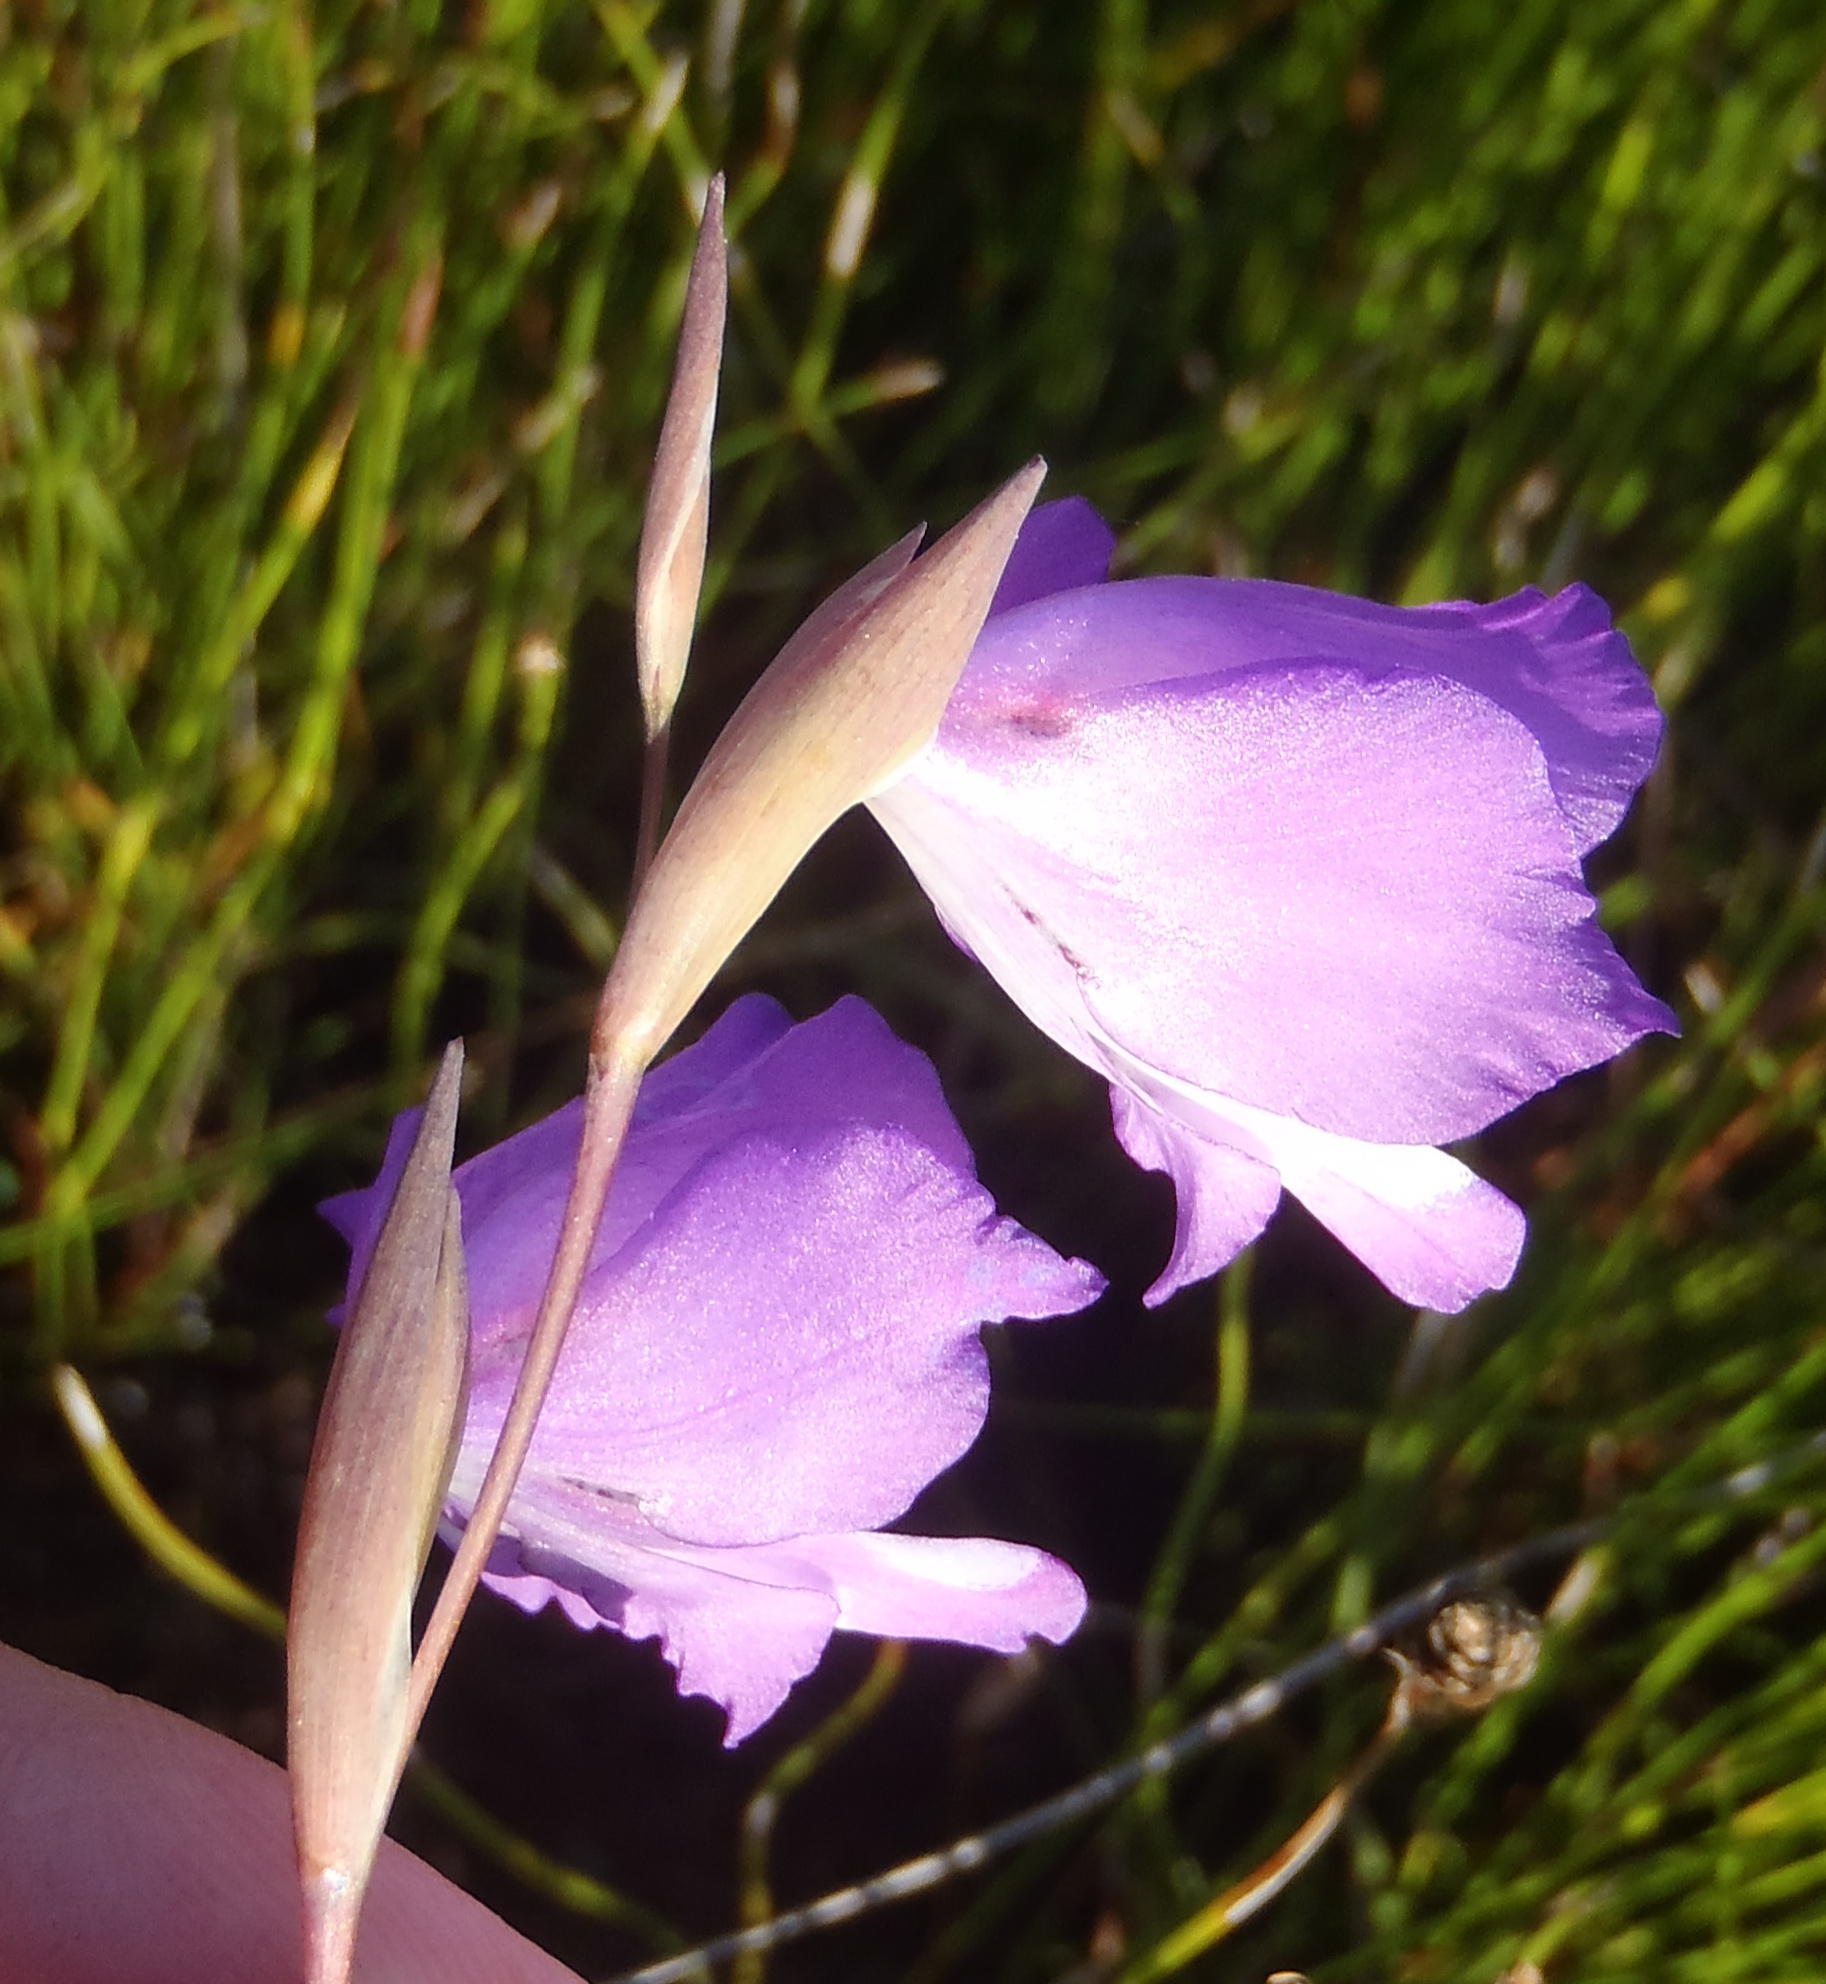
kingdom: Plantae
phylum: Tracheophyta
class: Liliopsida
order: Asparagales
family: Iridaceae
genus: Gladiolus
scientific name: Gladiolus rogersii
